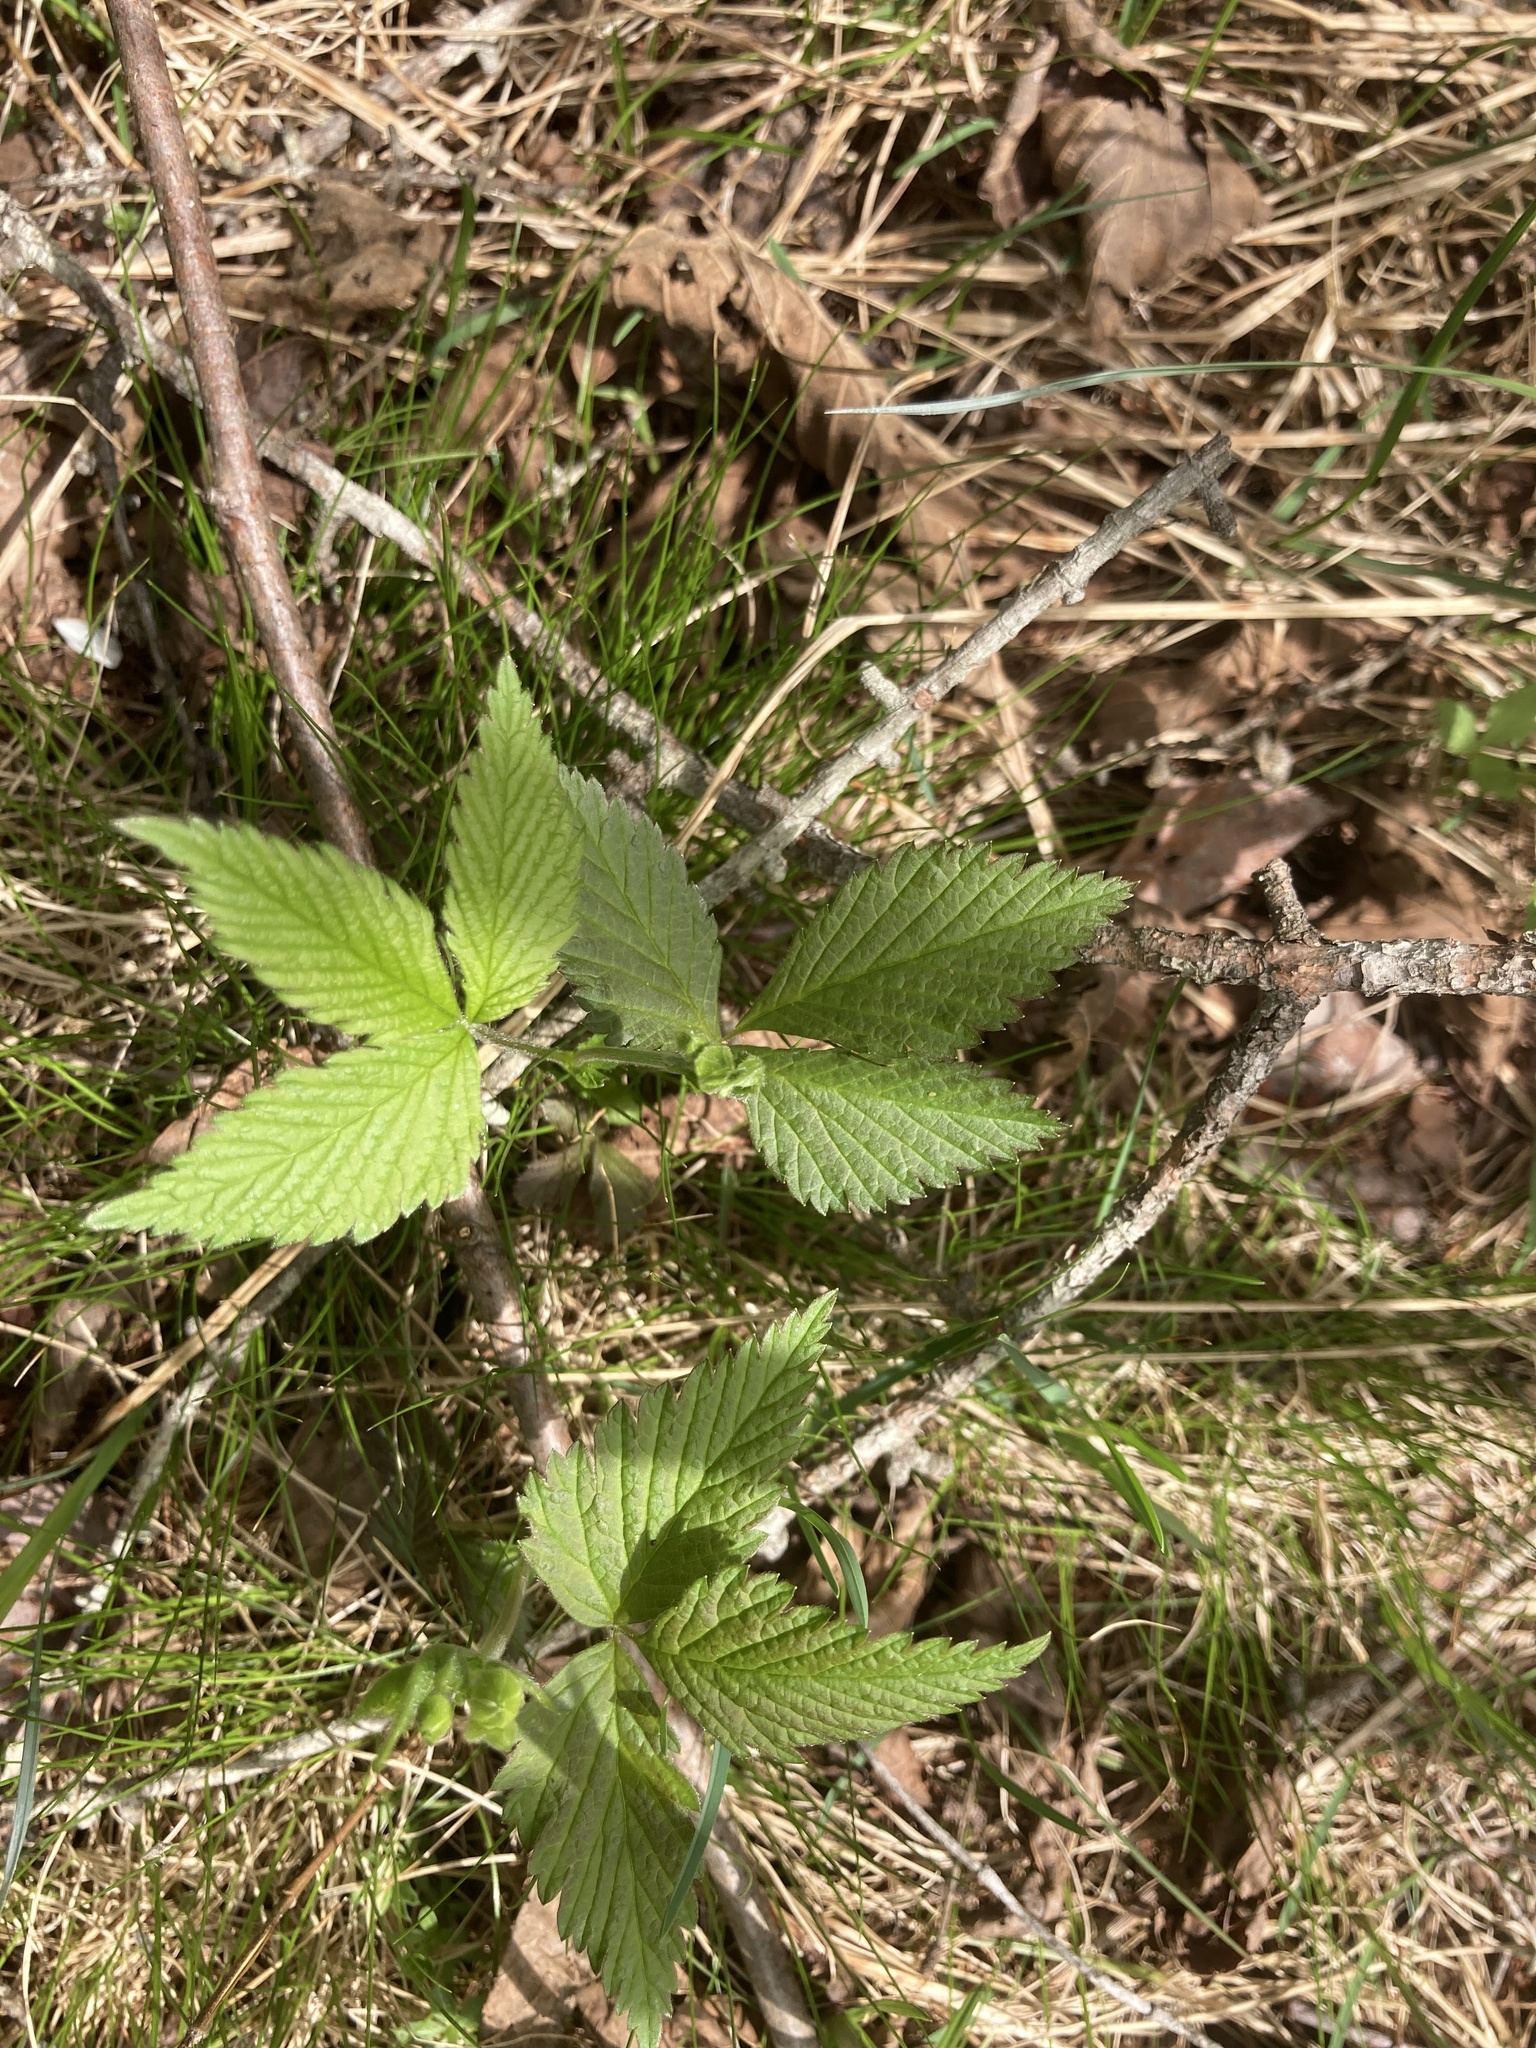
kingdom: Plantae
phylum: Tracheophyta
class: Magnoliopsida
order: Rosales
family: Rosaceae
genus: Rubus
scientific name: Rubus pubescens
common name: Dwarf raspberry
